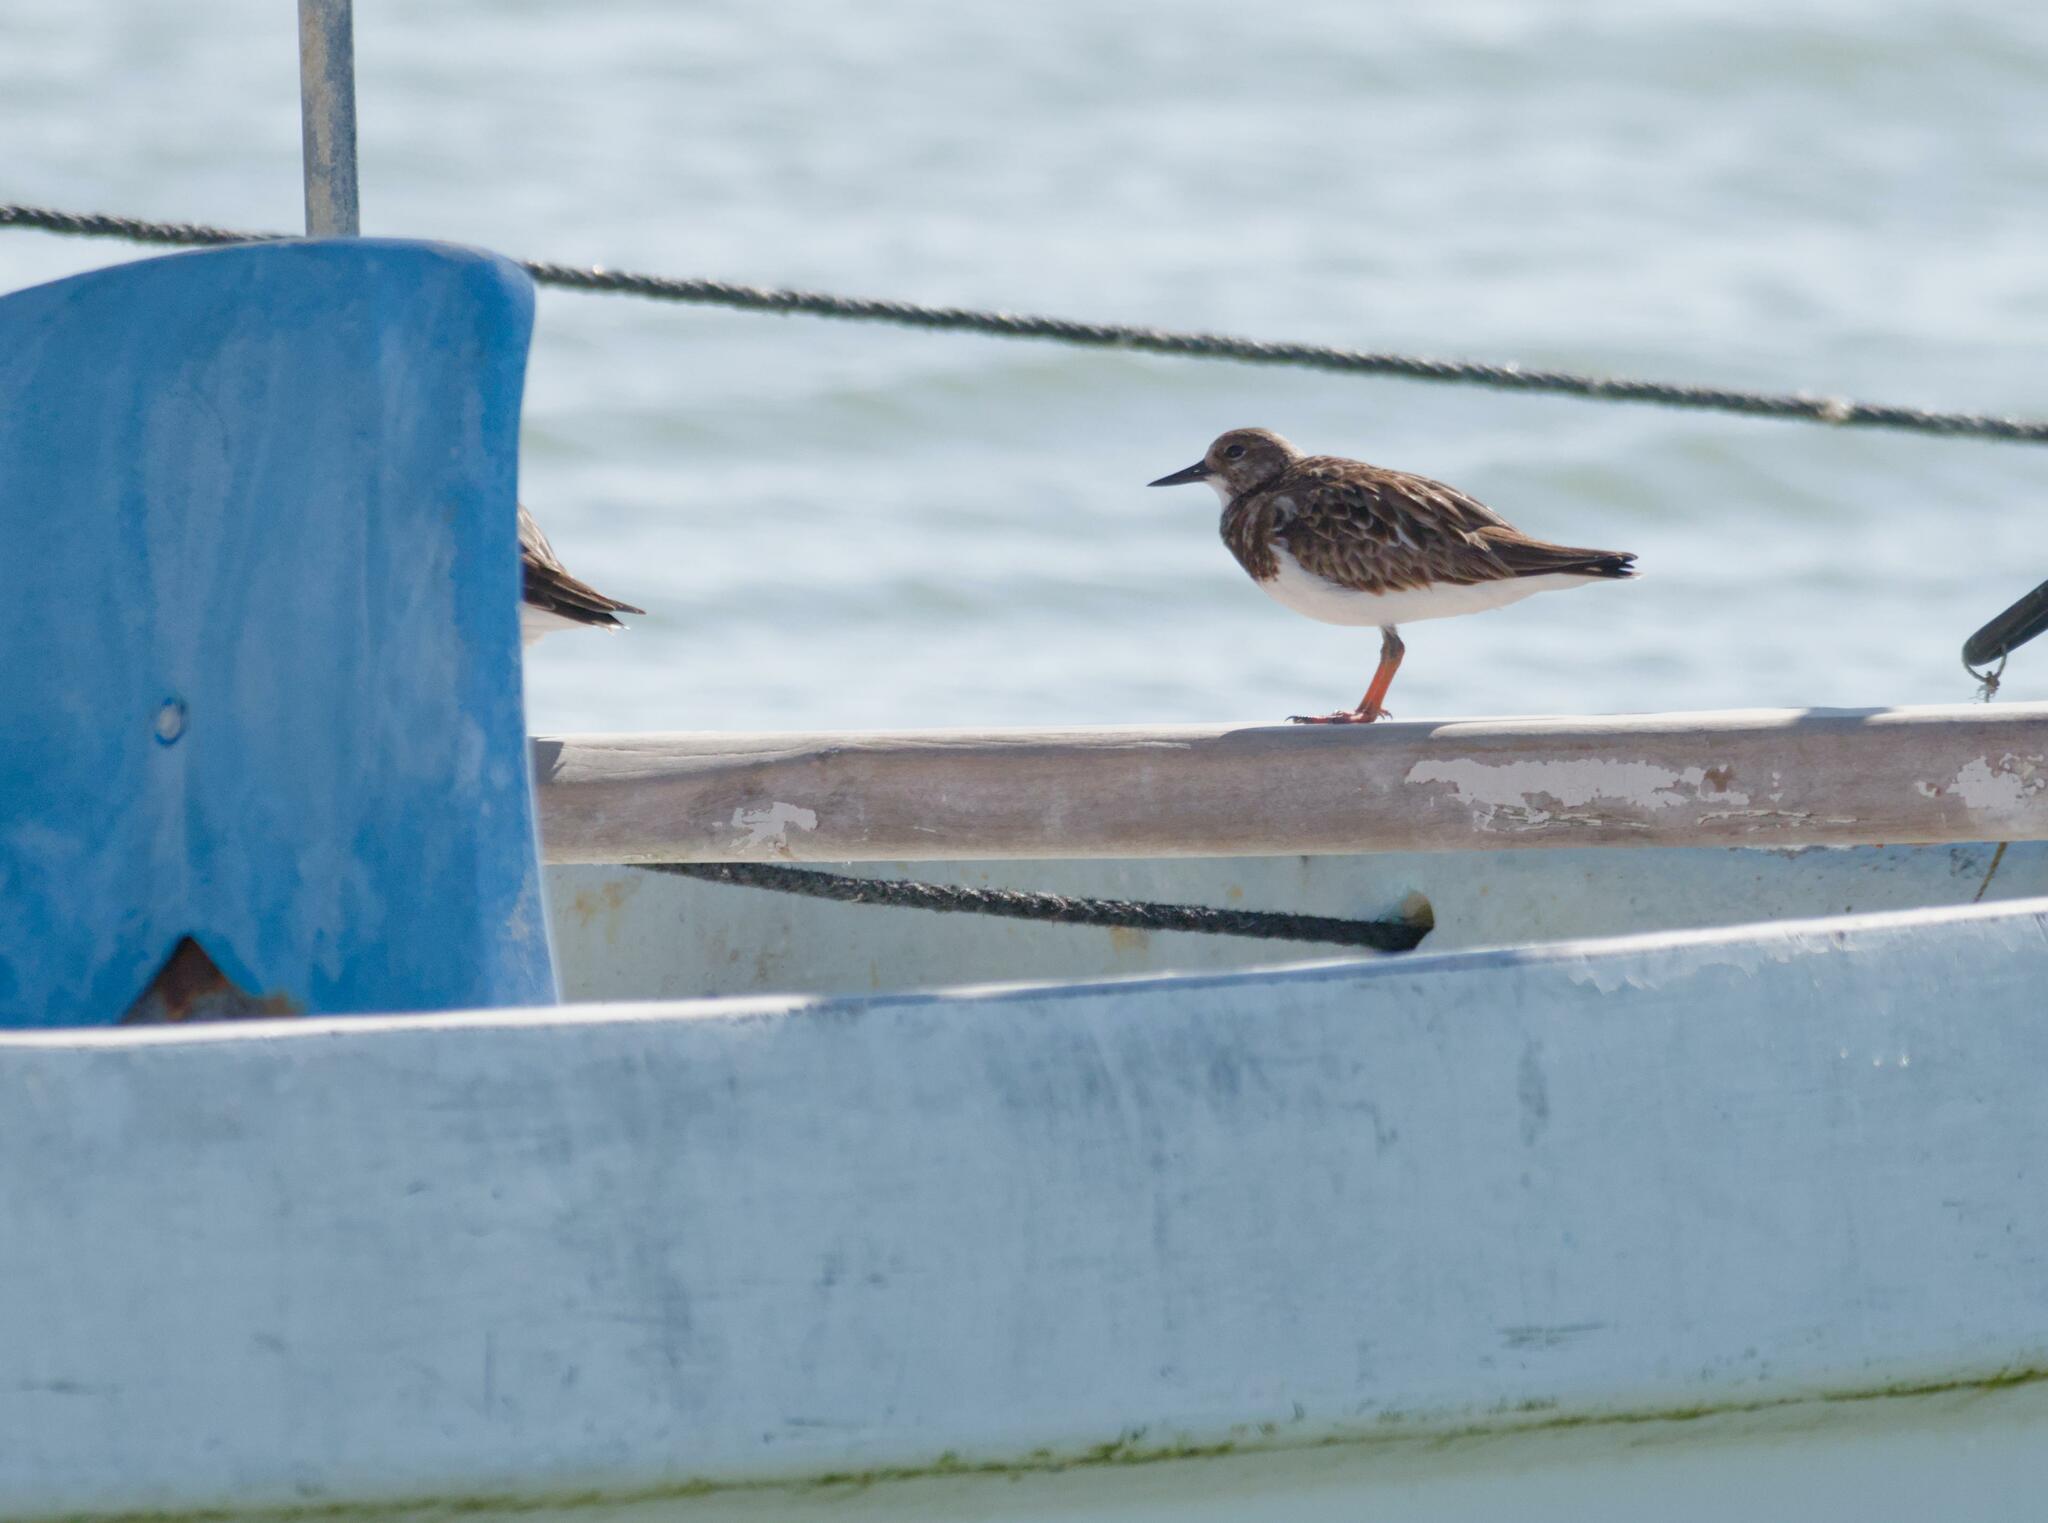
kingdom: Animalia
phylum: Chordata
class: Aves
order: Charadriiformes
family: Scolopacidae
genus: Arenaria
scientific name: Arenaria interpres
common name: Ruddy turnstone
